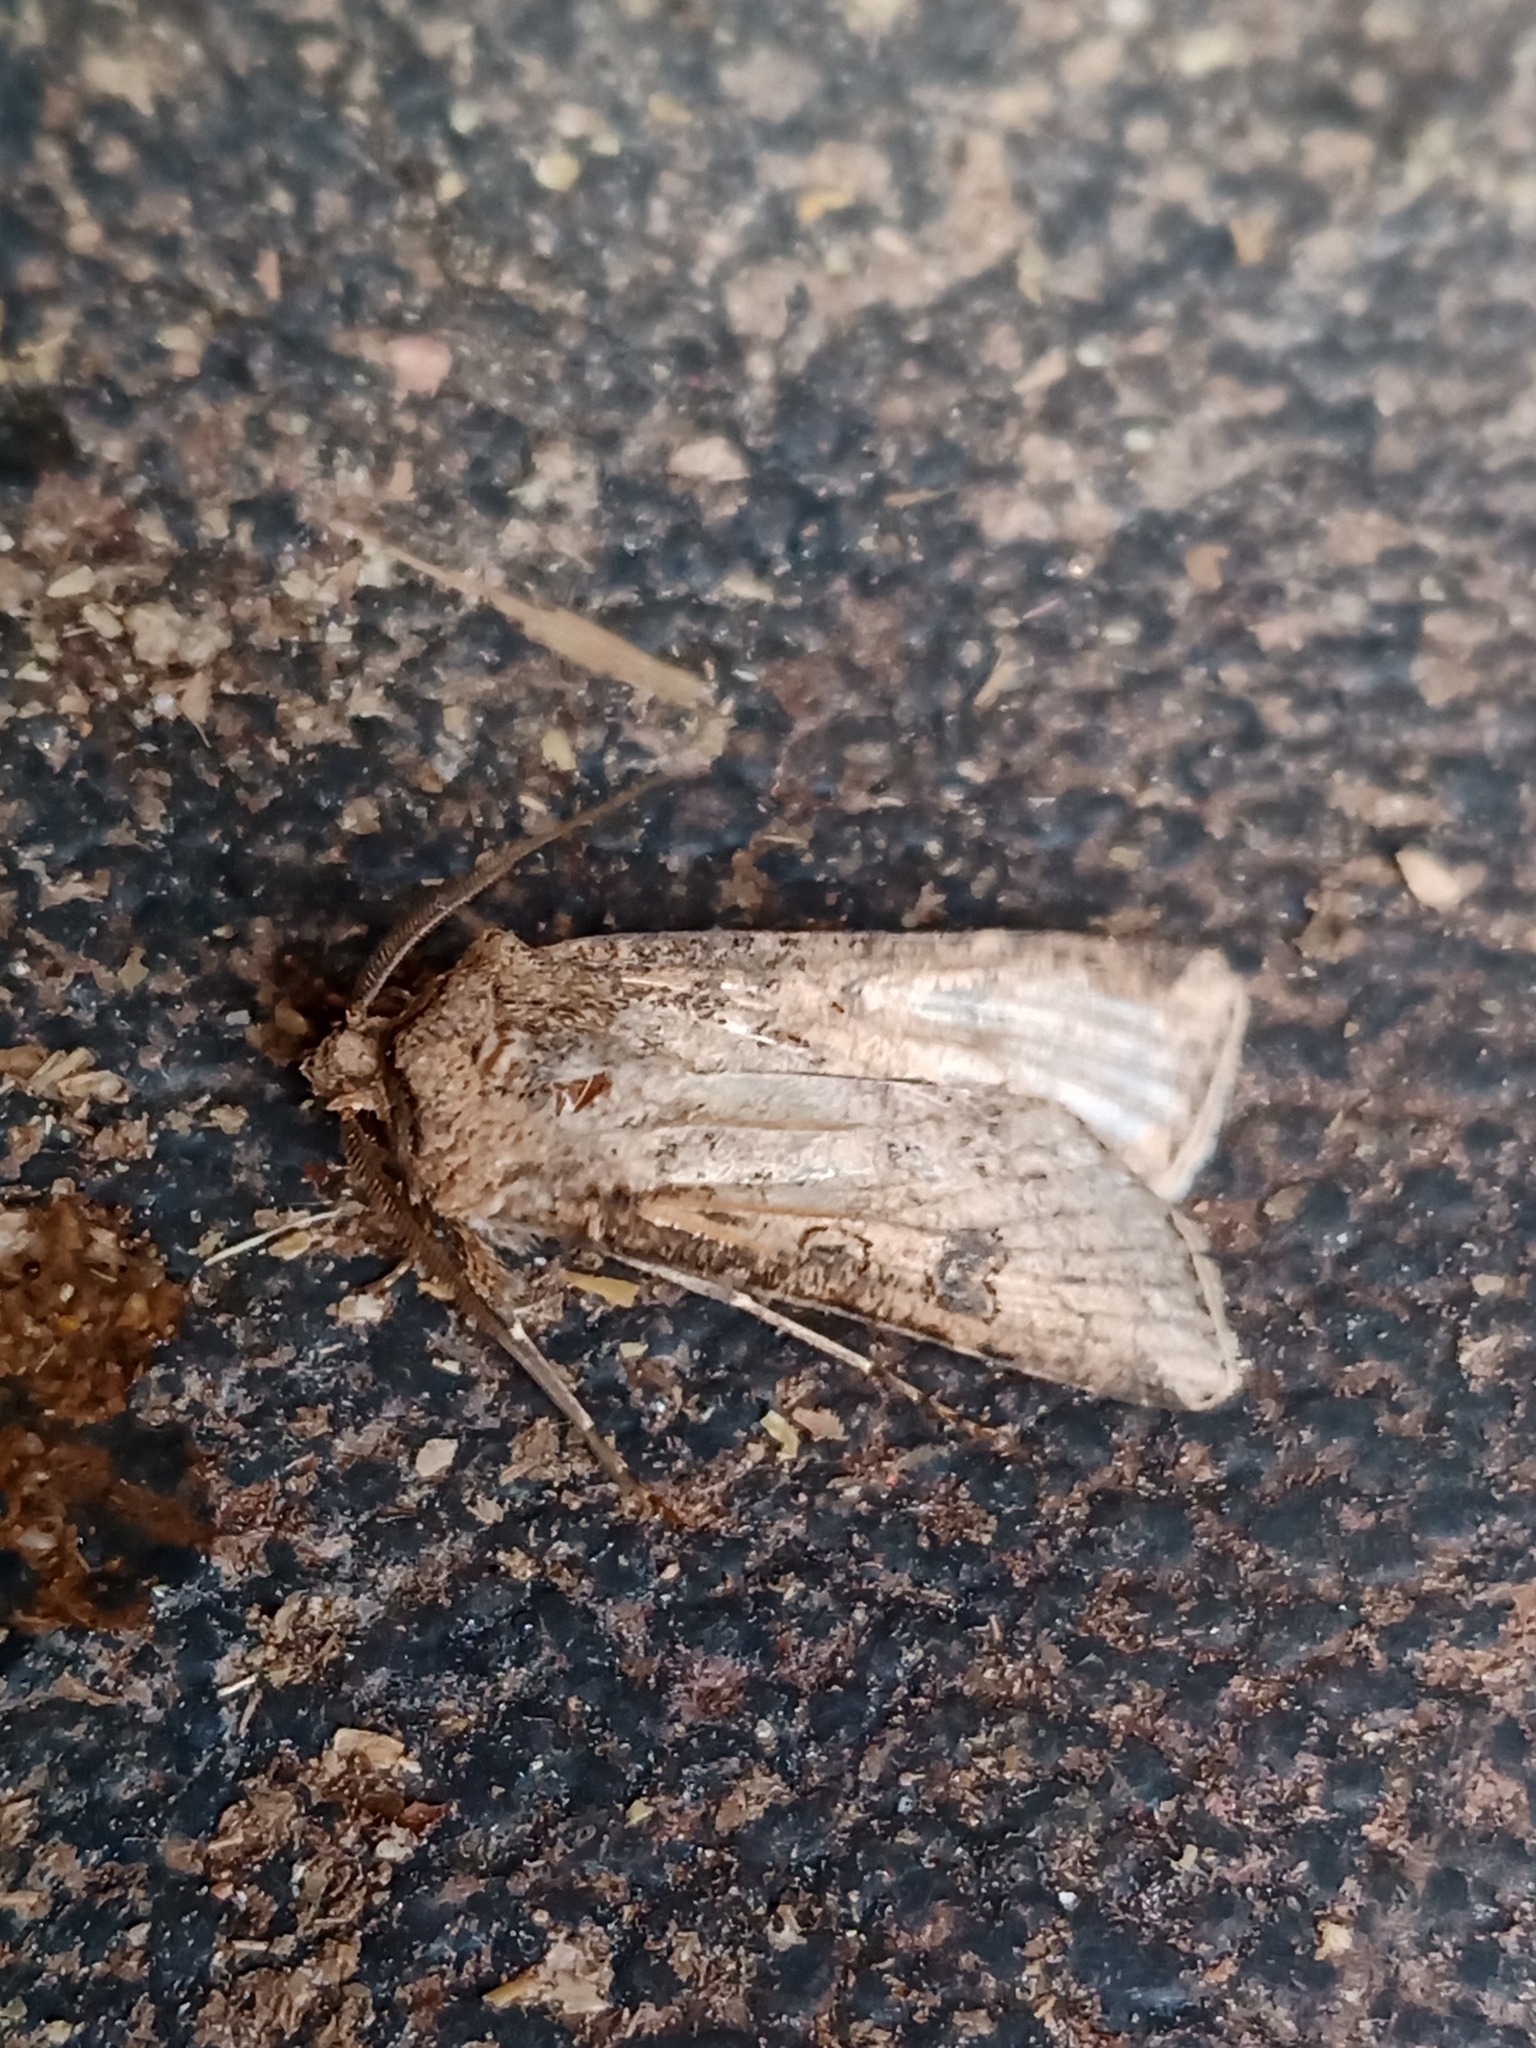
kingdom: Animalia
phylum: Arthropoda
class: Insecta
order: Lepidoptera
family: Noctuidae
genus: Agrotis
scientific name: Agrotis segetum
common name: Turnip moth
